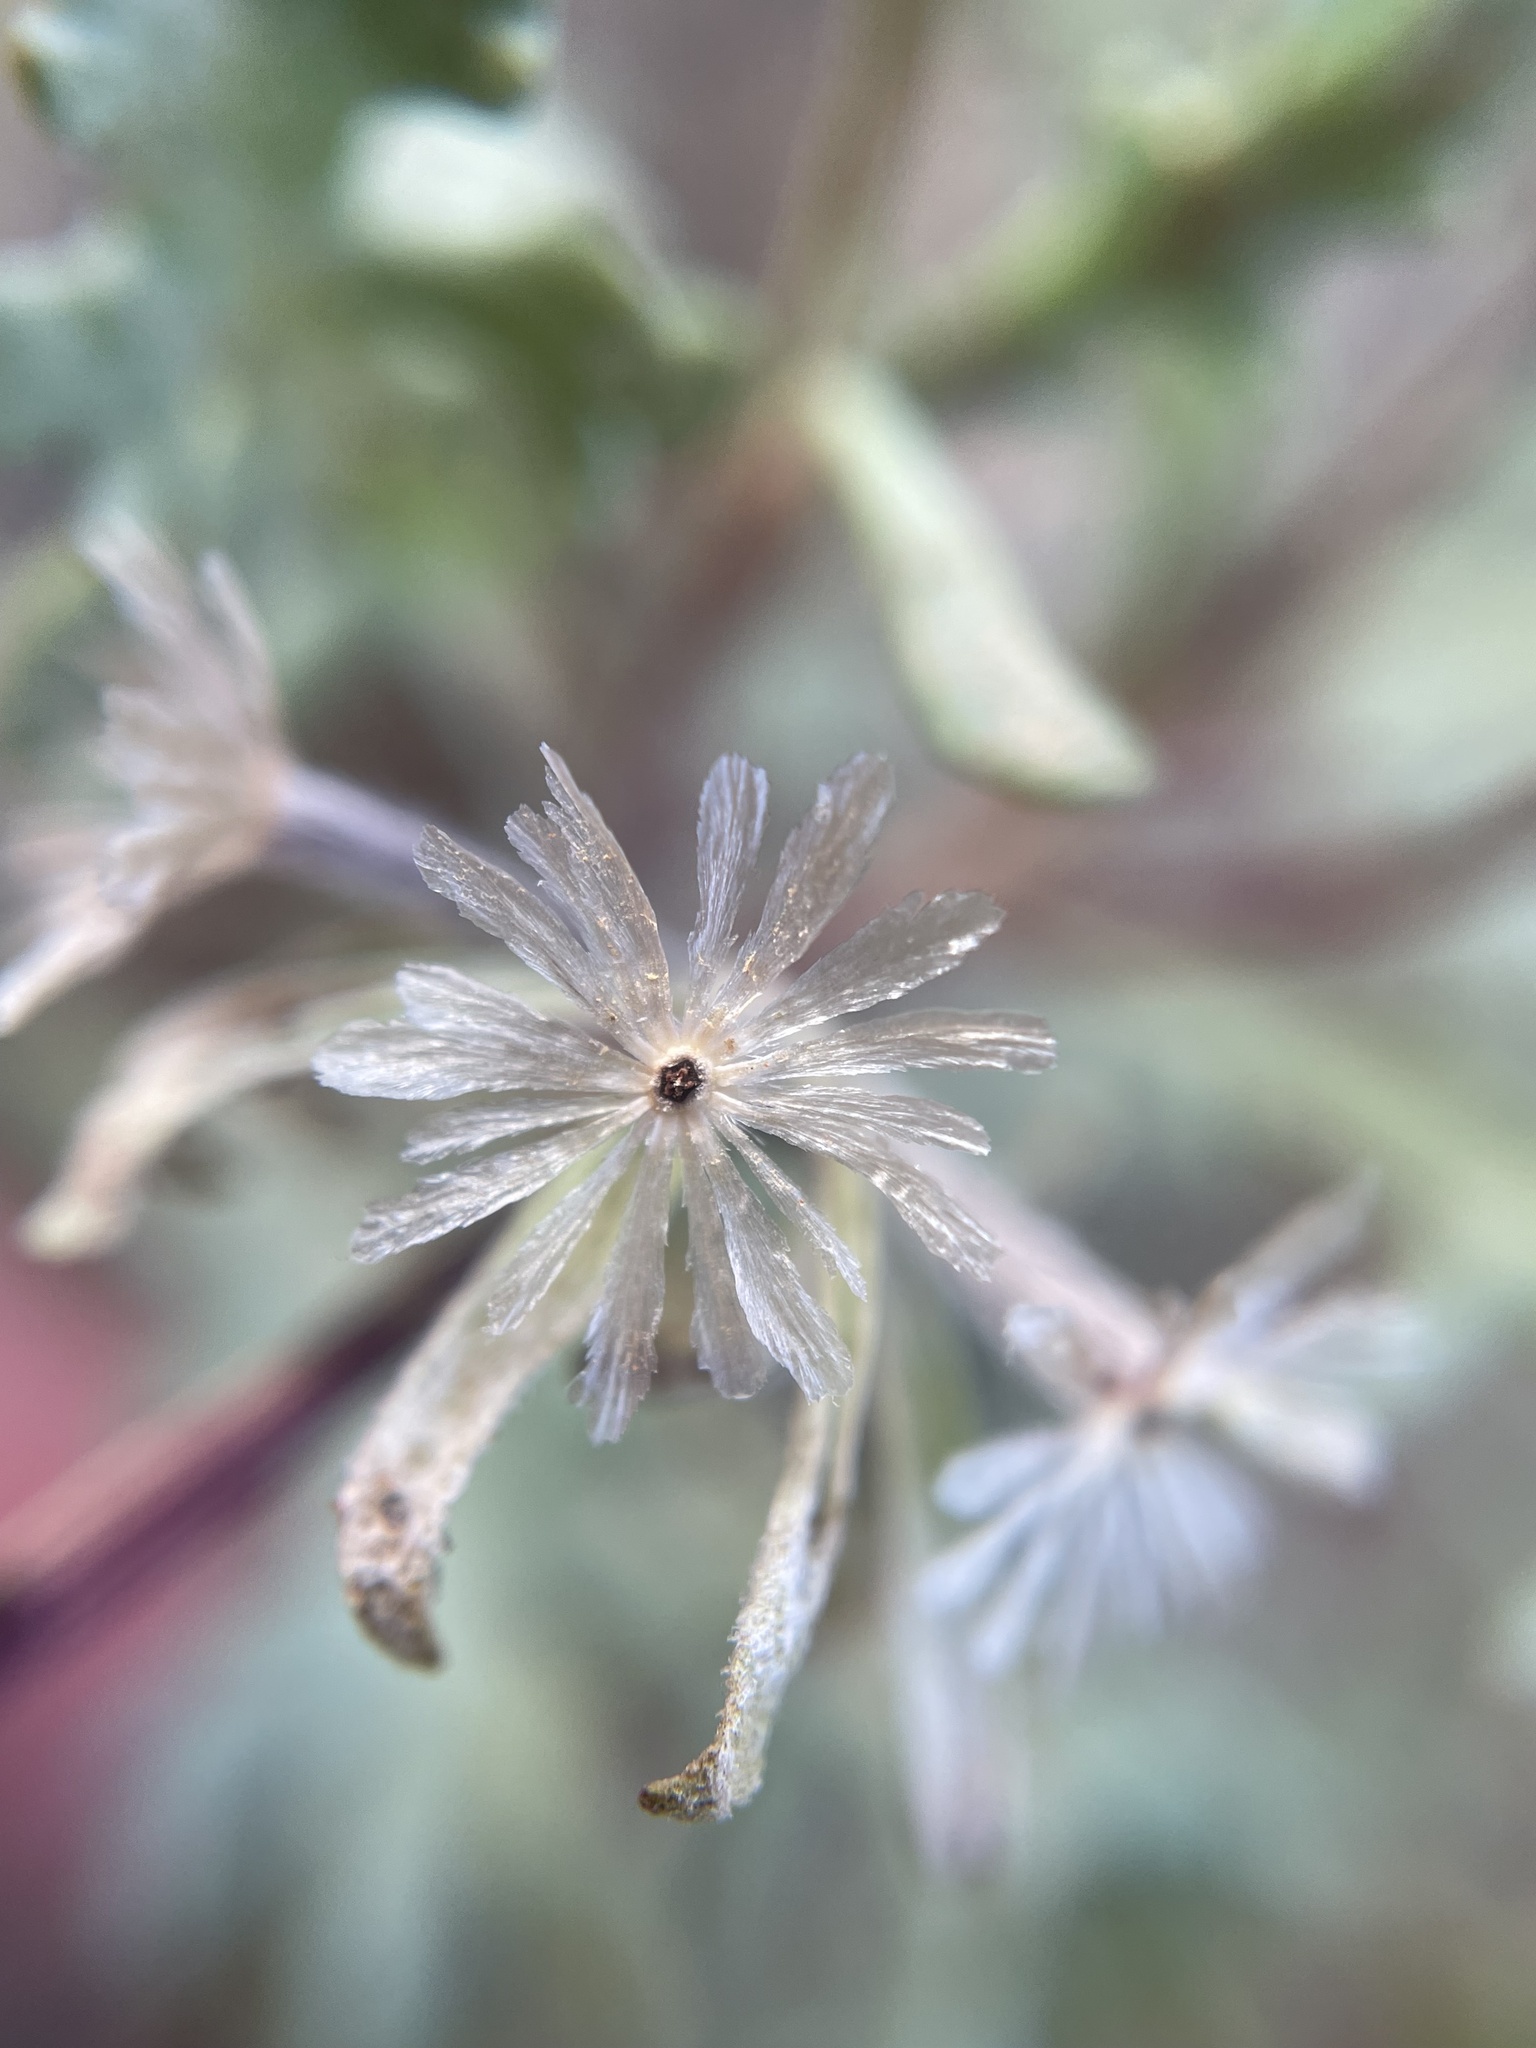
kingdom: Plantae
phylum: Tracheophyta
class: Magnoliopsida
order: Asterales
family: Asteraceae
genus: Chaenactis
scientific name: Chaenactis thompsonii
